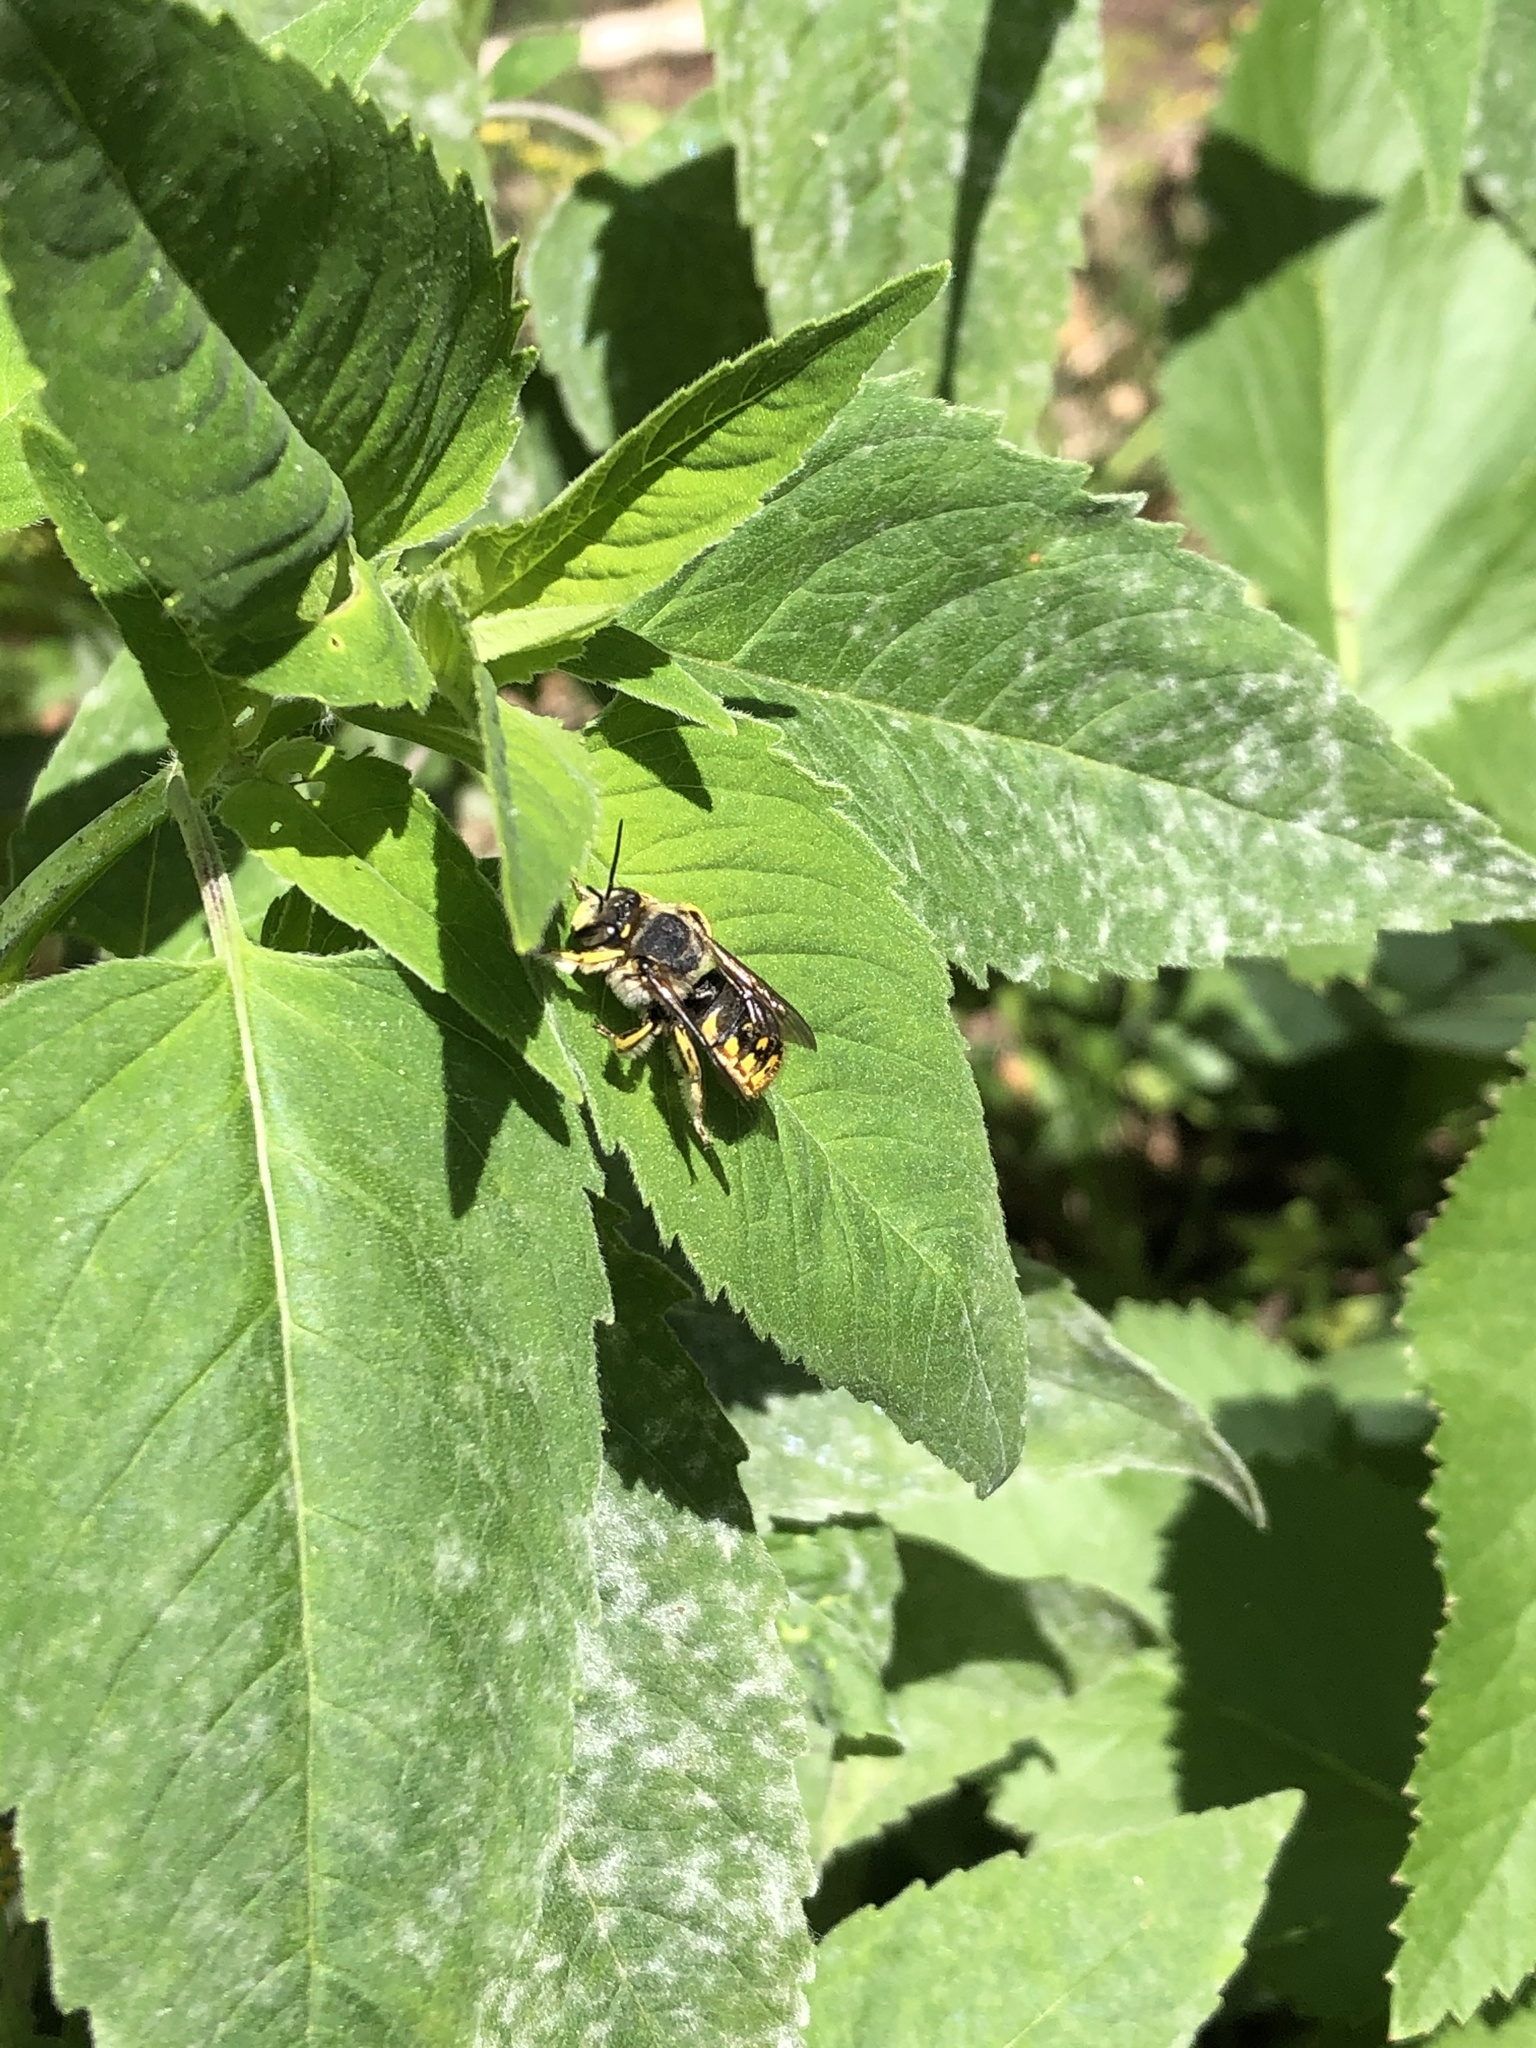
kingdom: Animalia
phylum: Arthropoda
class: Insecta
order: Hymenoptera
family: Megachilidae
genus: Anthidium
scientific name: Anthidium manicatum
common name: Wool carder bee
